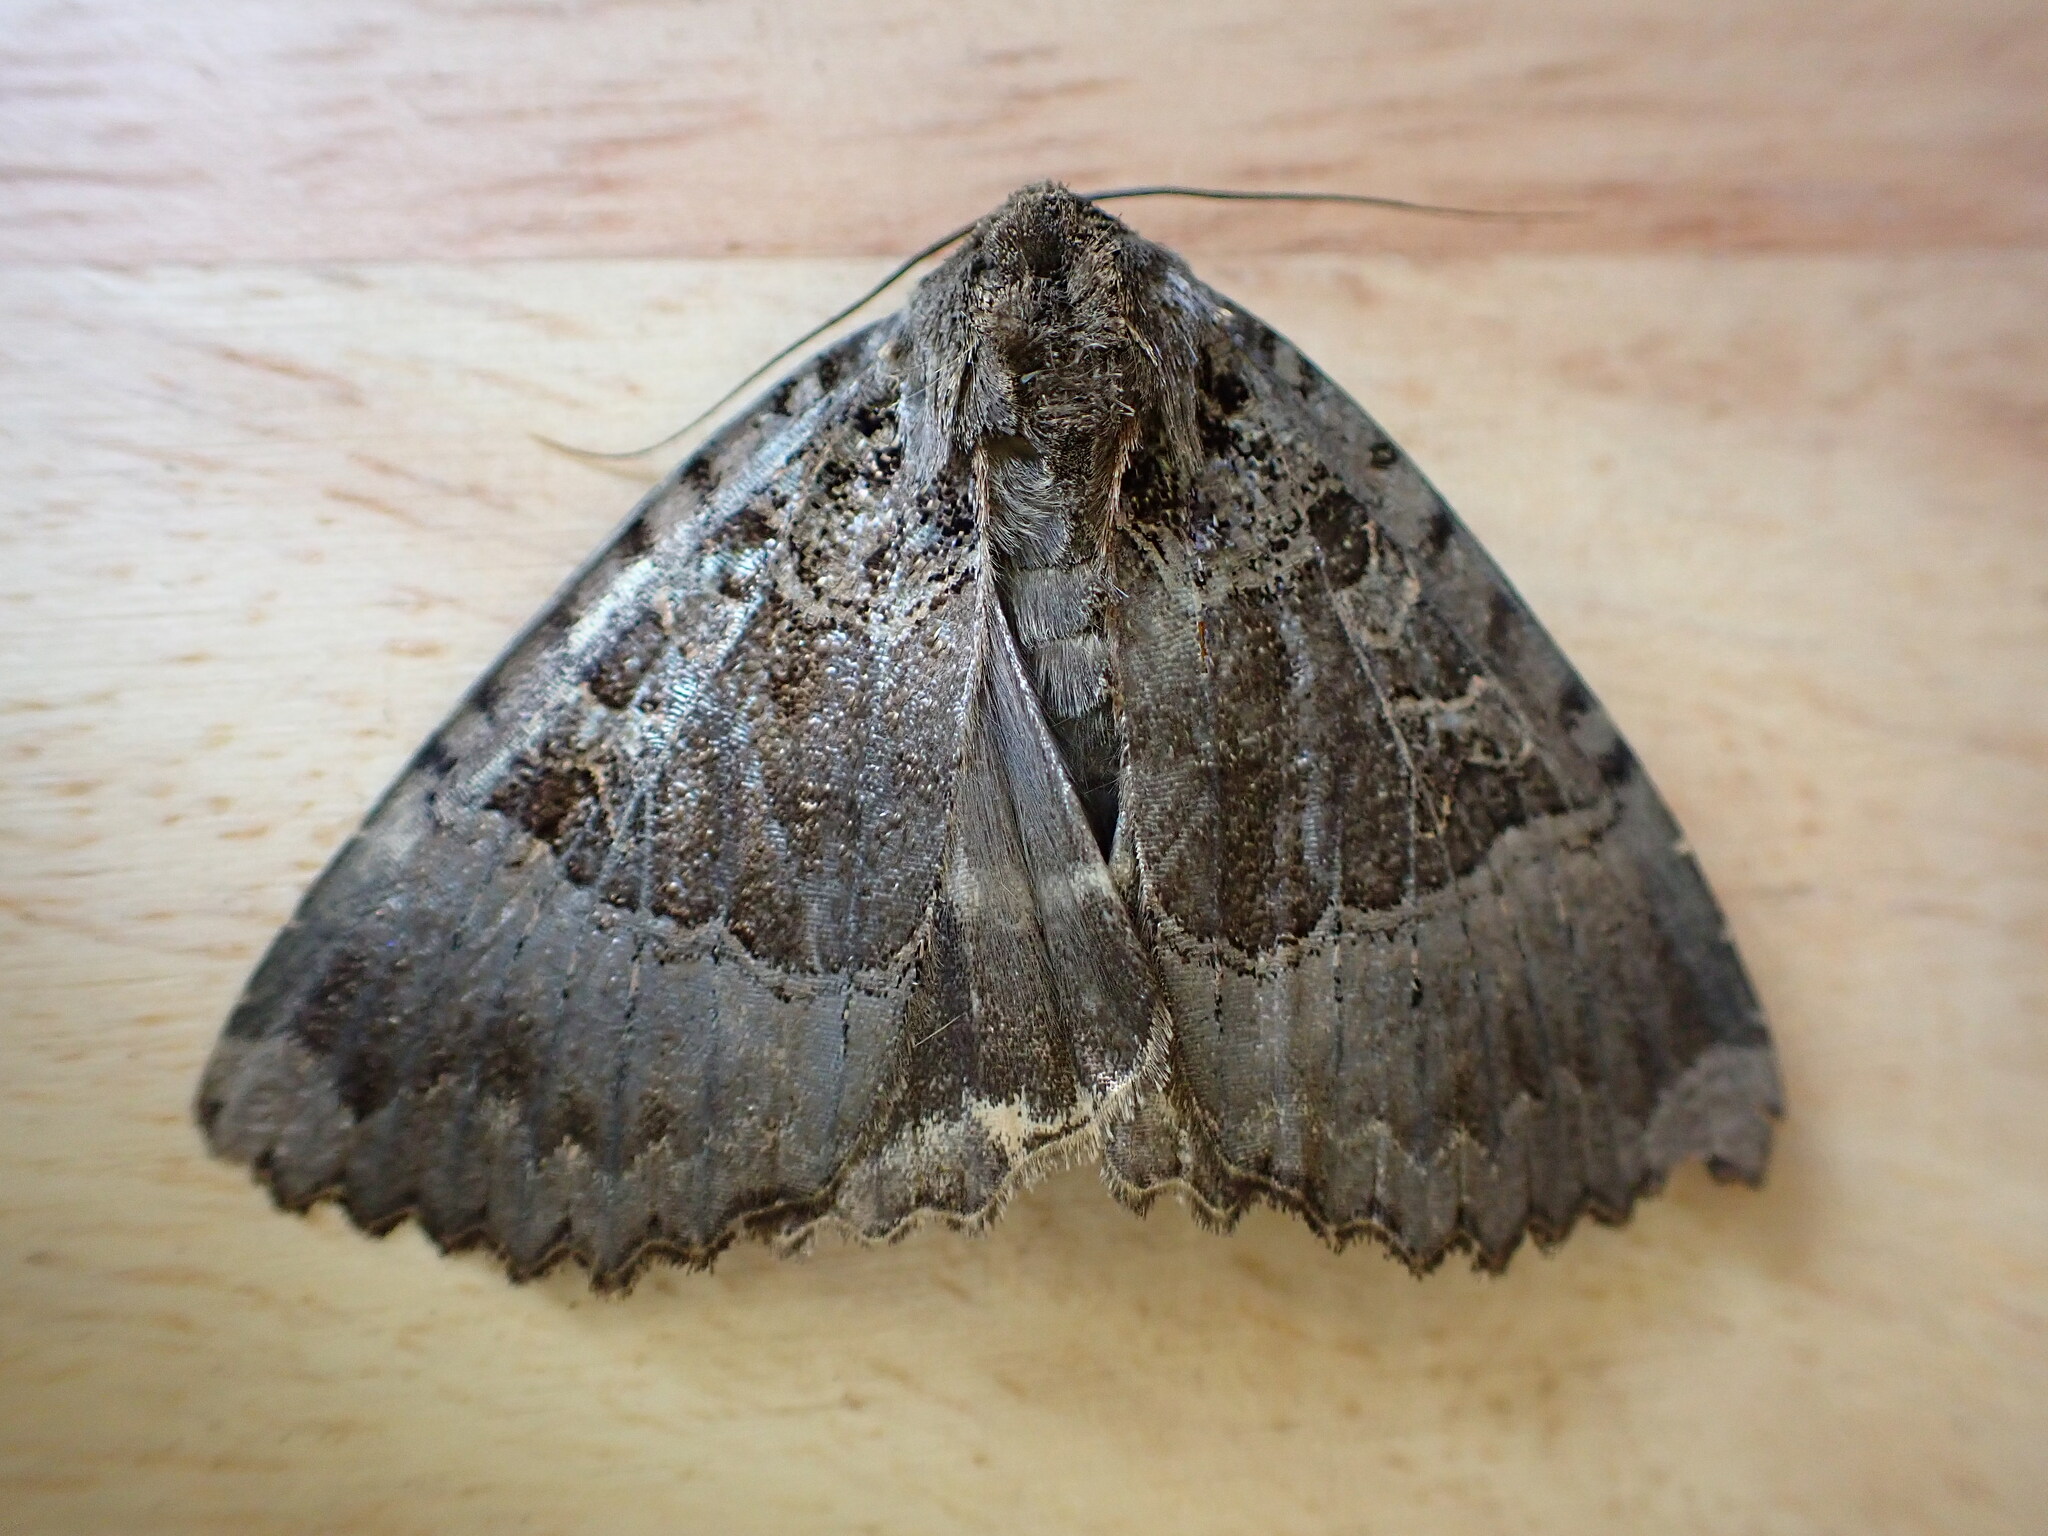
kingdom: Animalia
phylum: Arthropoda
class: Insecta
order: Lepidoptera
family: Noctuidae
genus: Mormo
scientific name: Mormo maura
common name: Old lady
